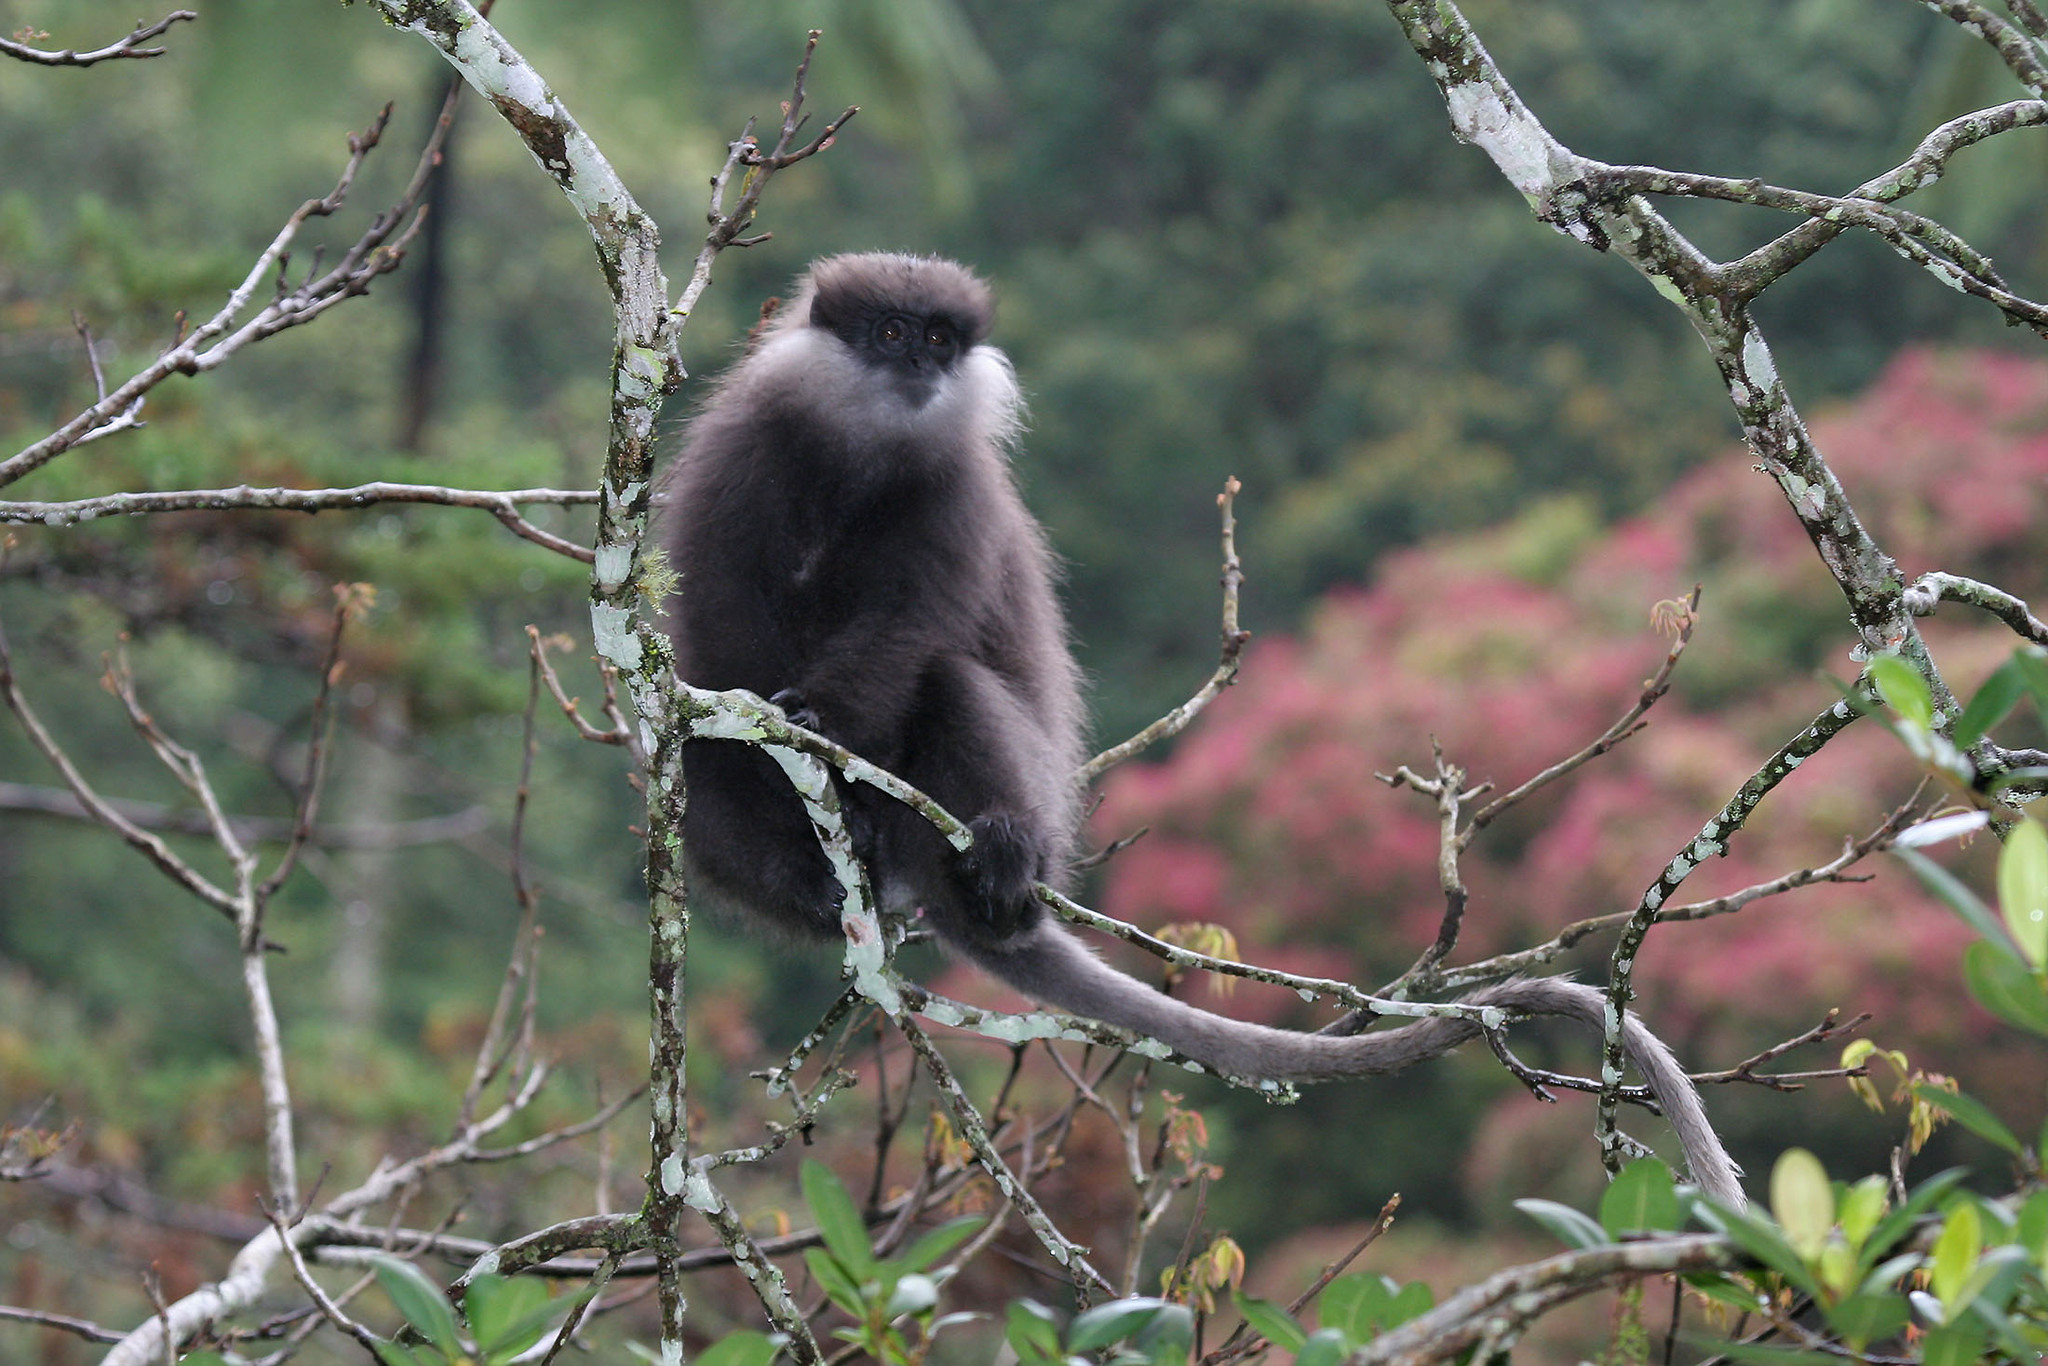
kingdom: Animalia
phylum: Chordata
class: Mammalia
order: Primates
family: Cercopithecidae
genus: Semnopithecus
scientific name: Semnopithecus vetulus
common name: Purple-faced langur
